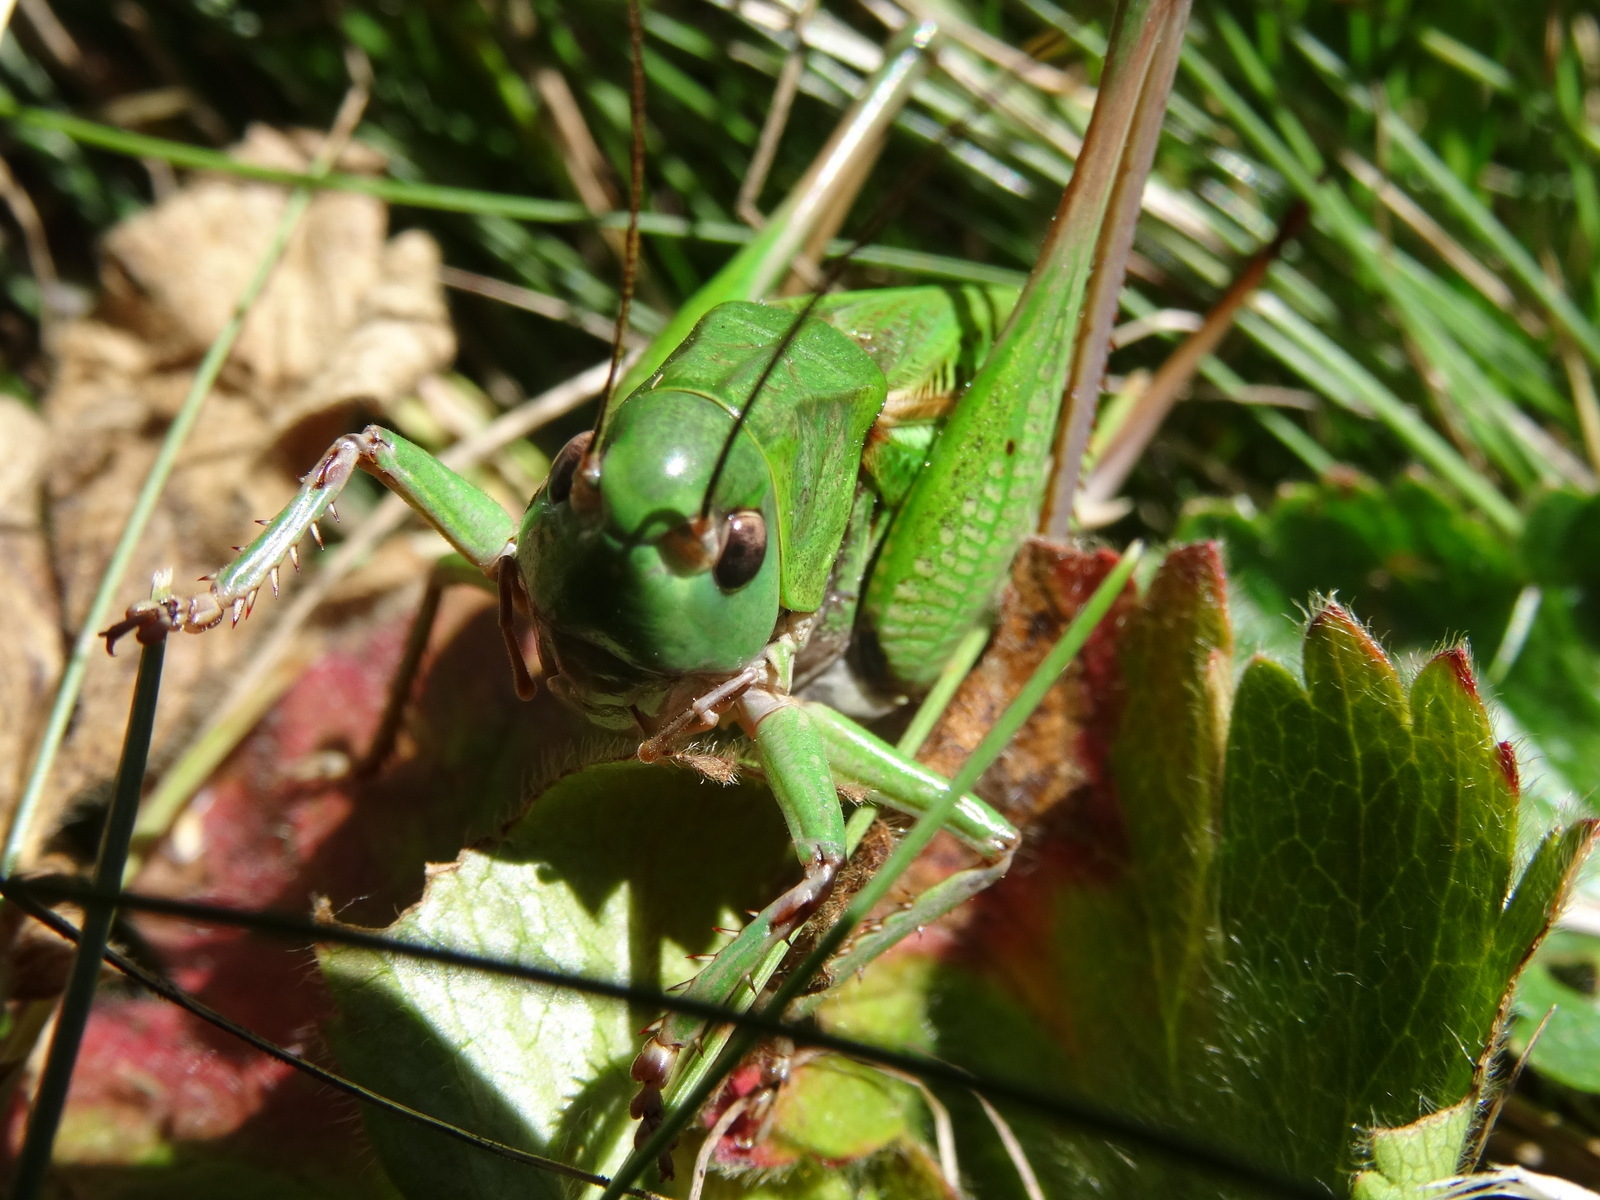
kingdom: Animalia
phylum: Arthropoda
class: Insecta
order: Orthoptera
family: Tettigoniidae
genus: Decticus
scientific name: Decticus verrucivorus
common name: Wart-biter
